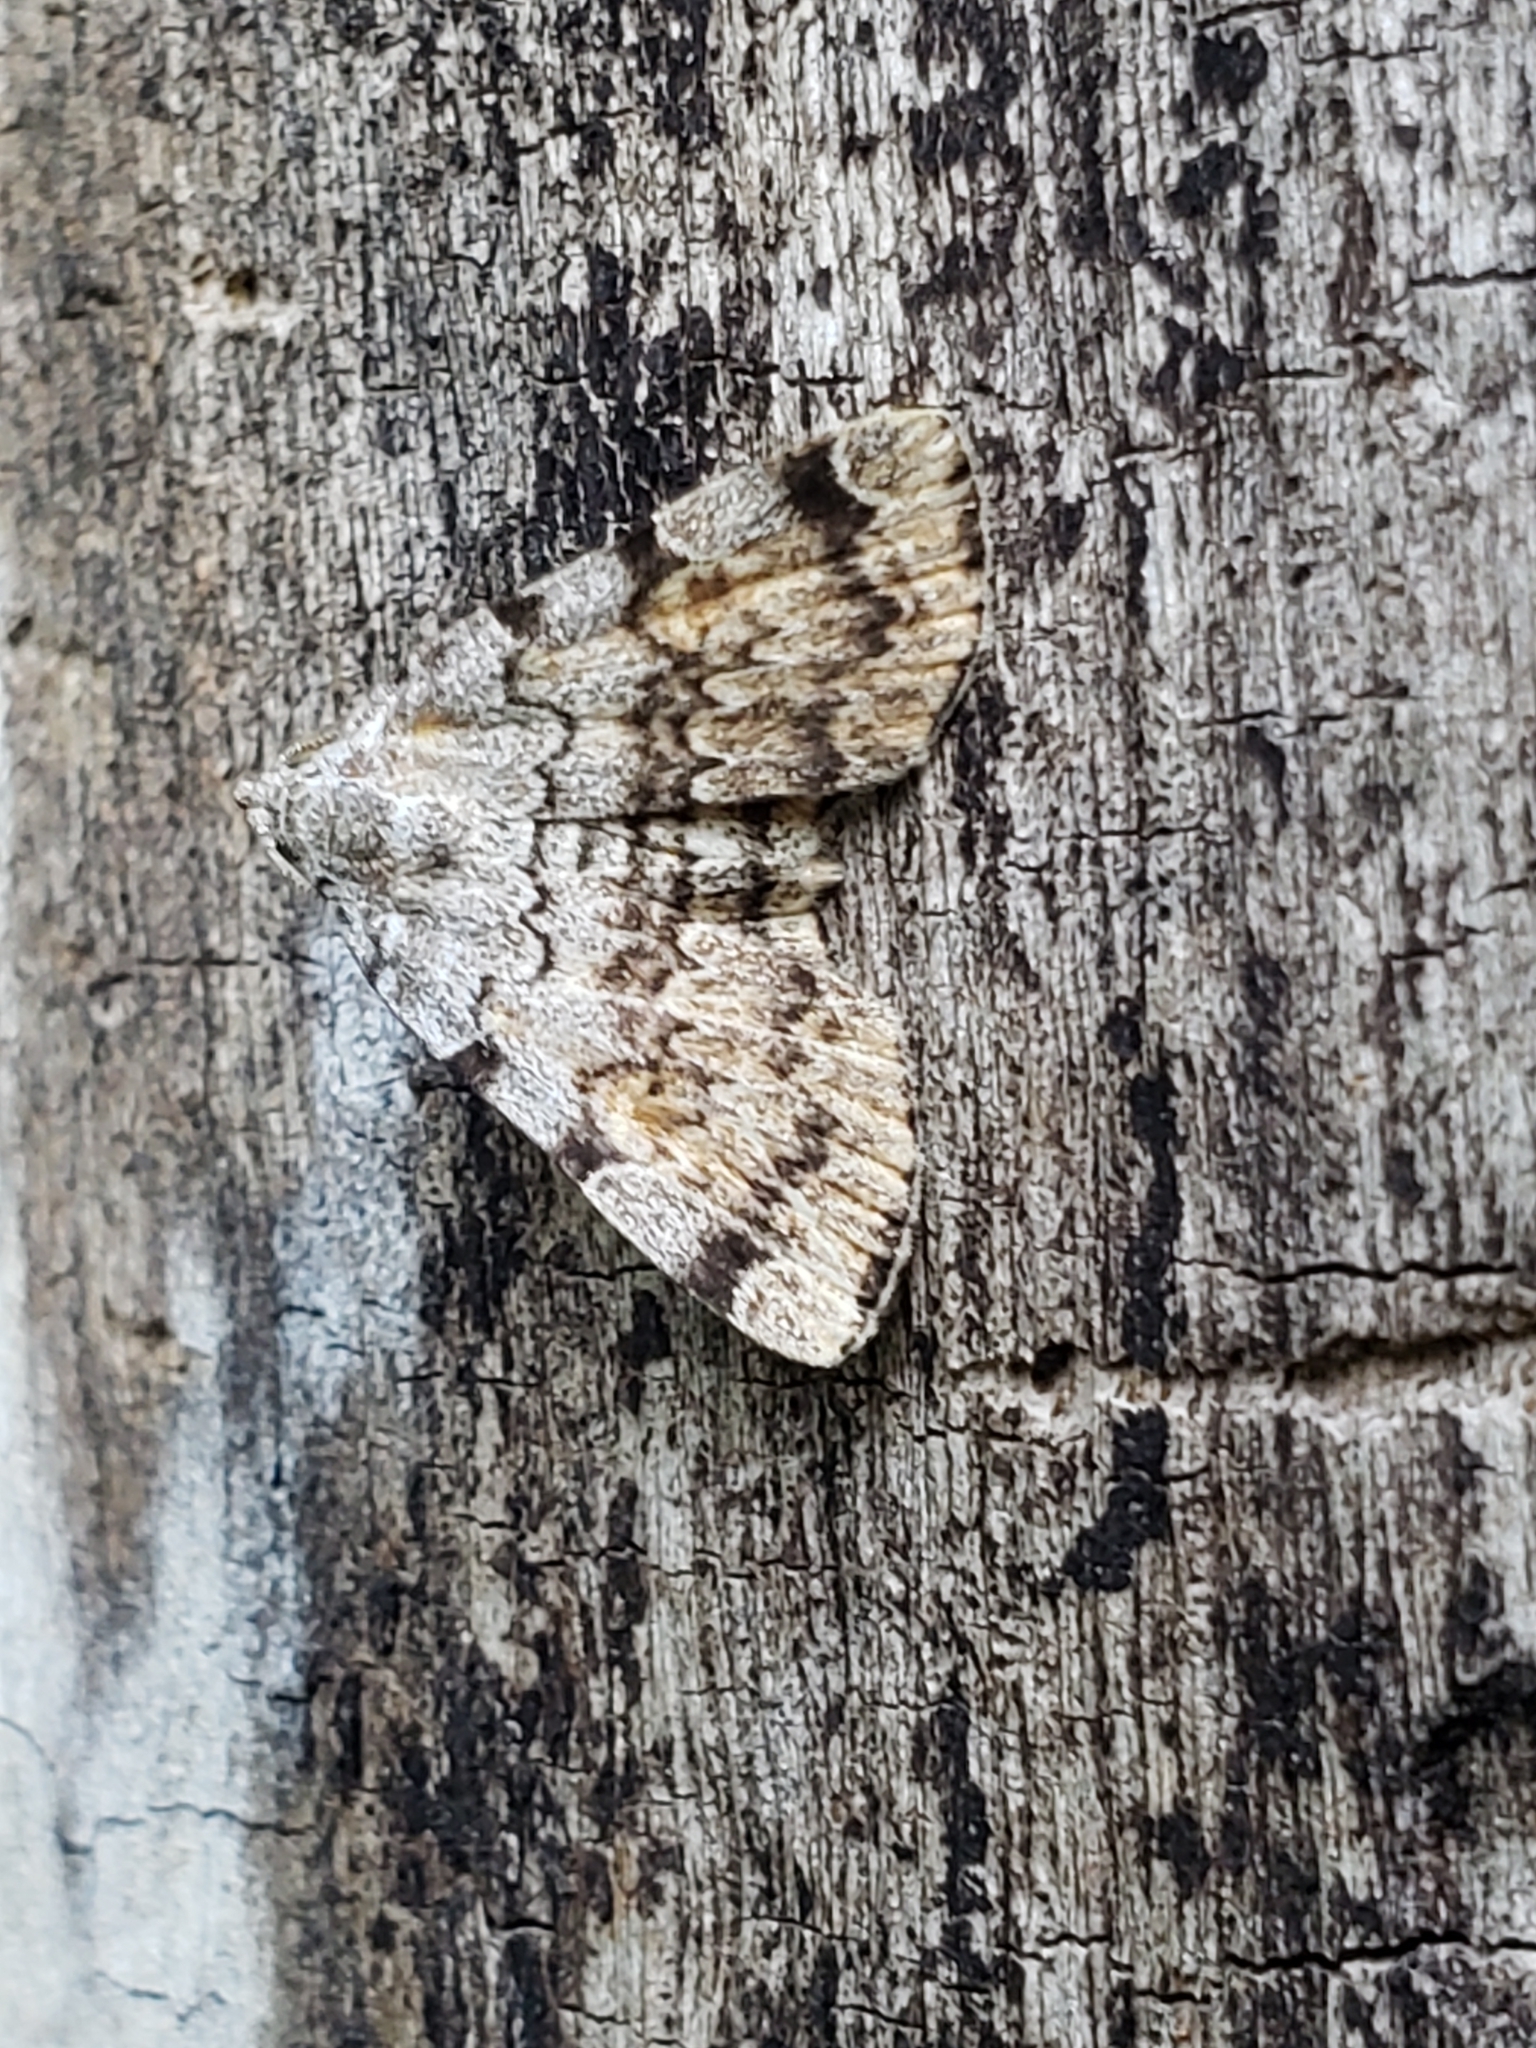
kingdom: Animalia
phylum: Arthropoda
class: Insecta
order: Lepidoptera
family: Erebidae
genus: Idia
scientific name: Idia americalis
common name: American idia moth
